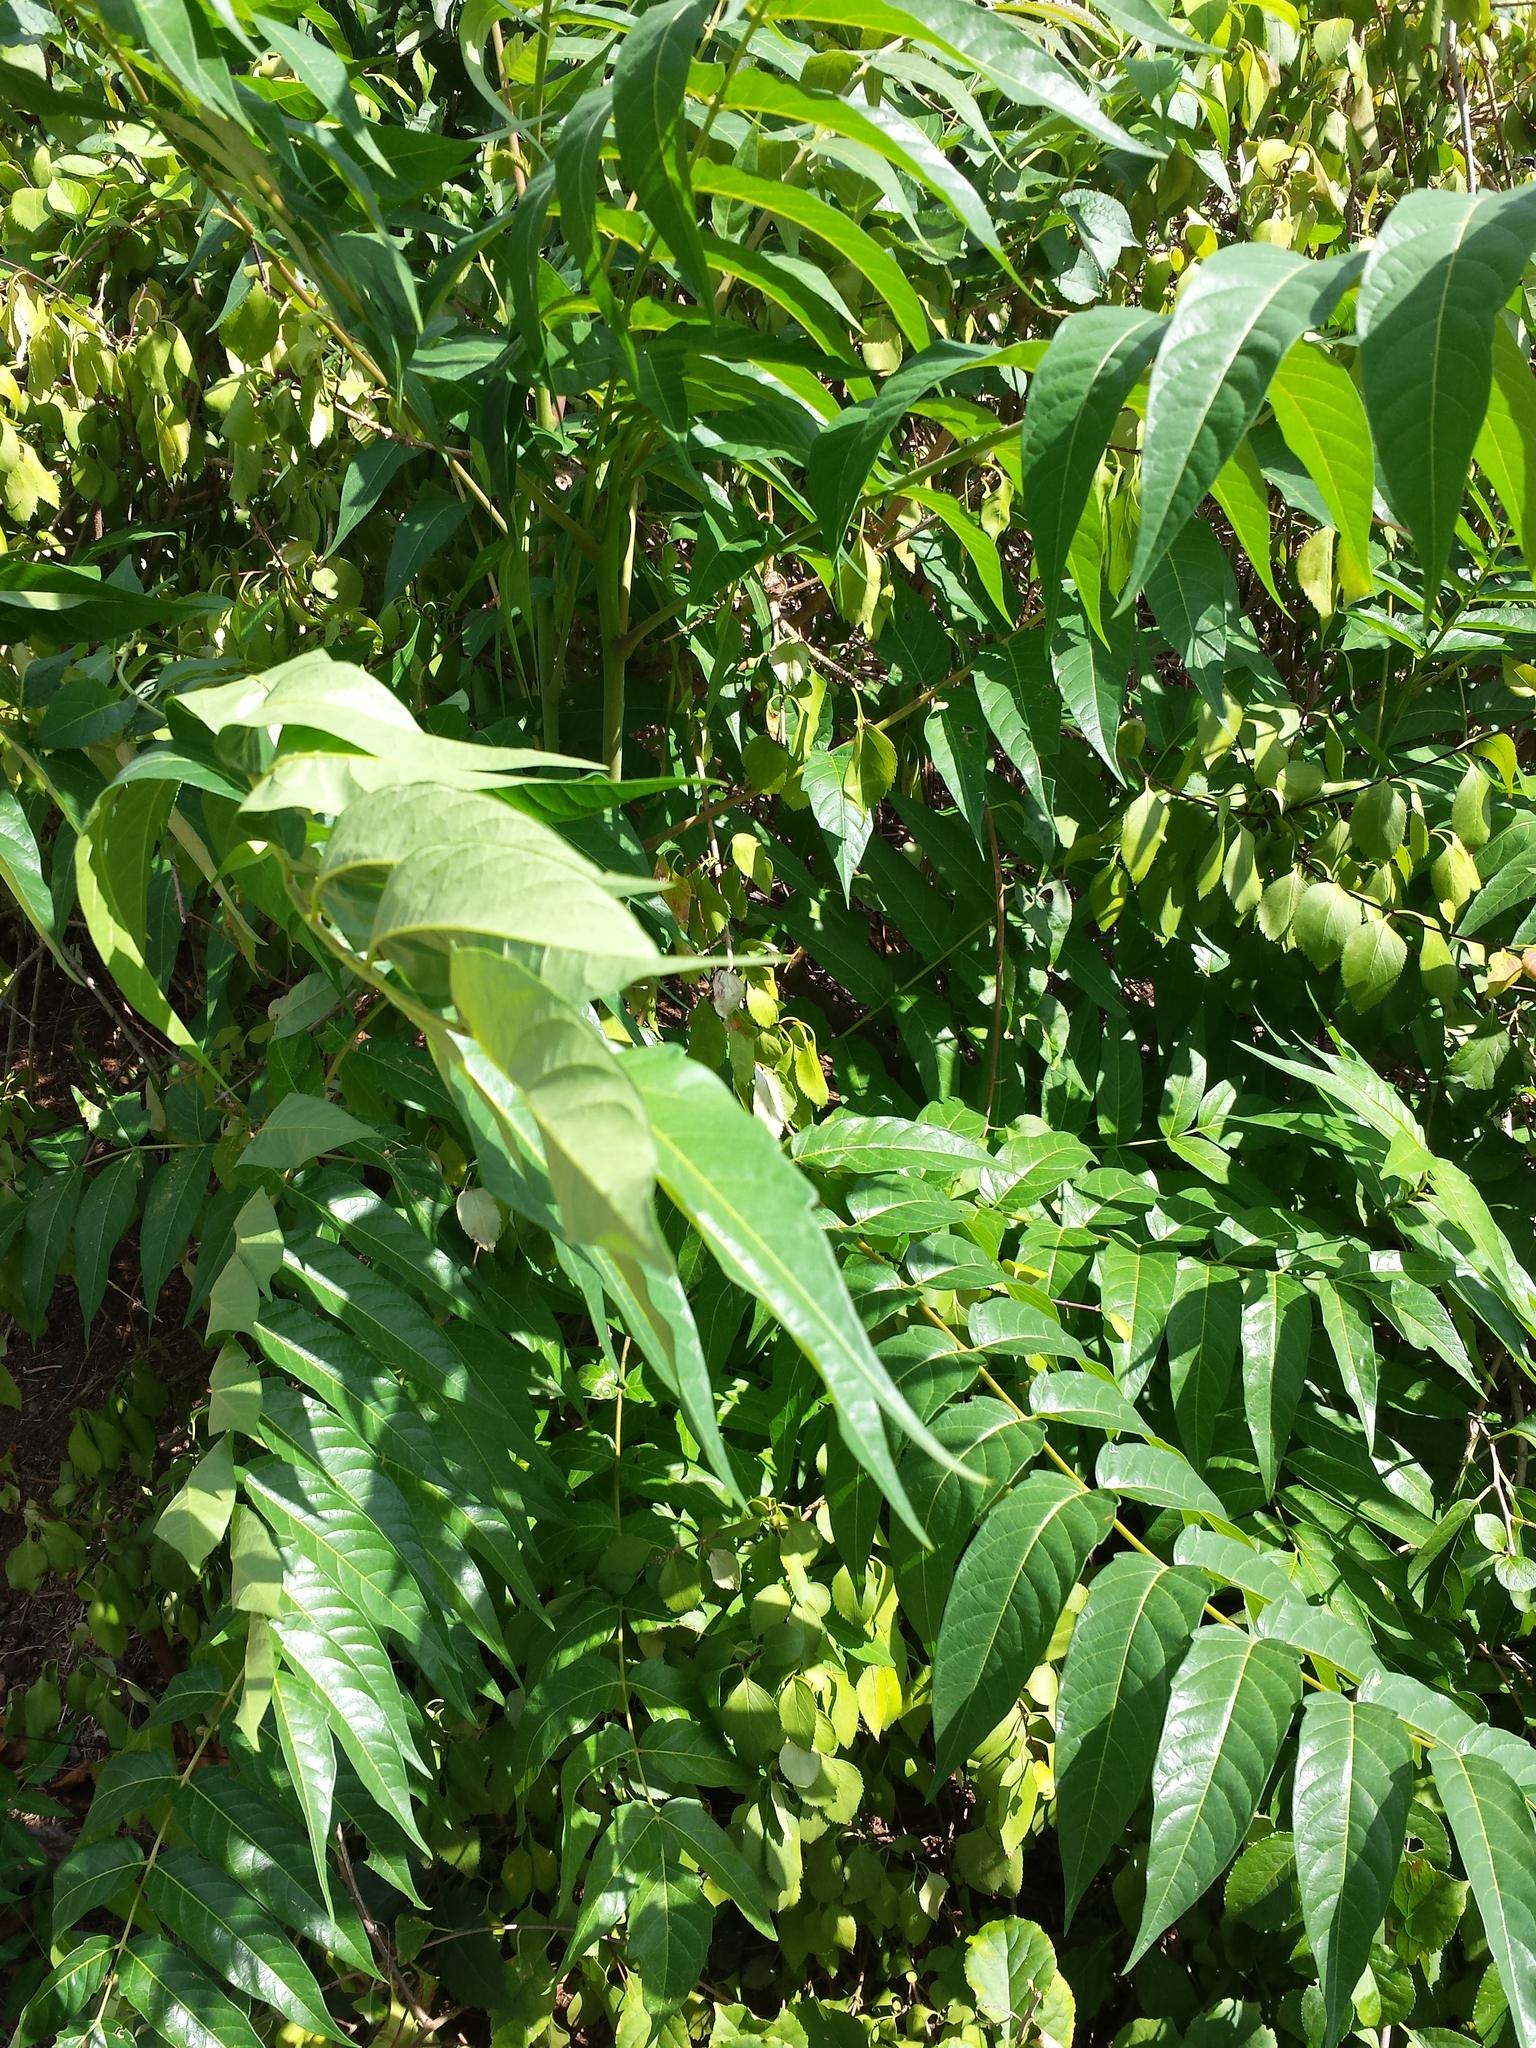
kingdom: Plantae
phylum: Tracheophyta
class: Magnoliopsida
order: Sapindales
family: Simaroubaceae
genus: Ailanthus
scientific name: Ailanthus altissima
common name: Tree-of-heaven
